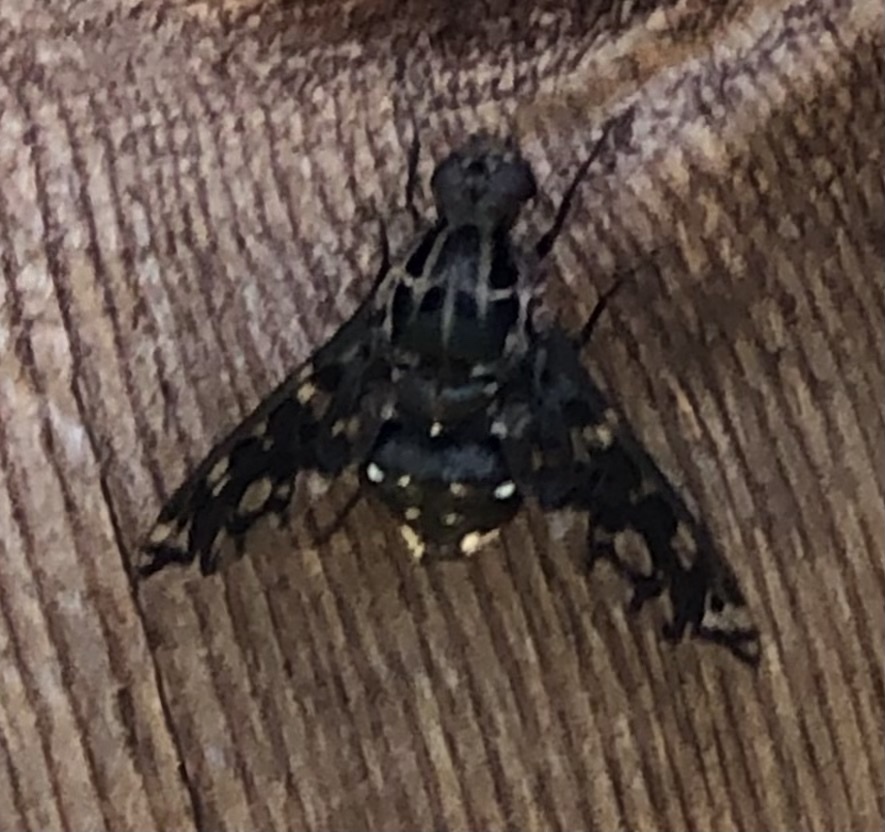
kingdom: Animalia
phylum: Arthropoda
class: Insecta
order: Diptera
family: Bombyliidae
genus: Xenox
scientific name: Xenox tigrinus
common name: Tiger bee fly
